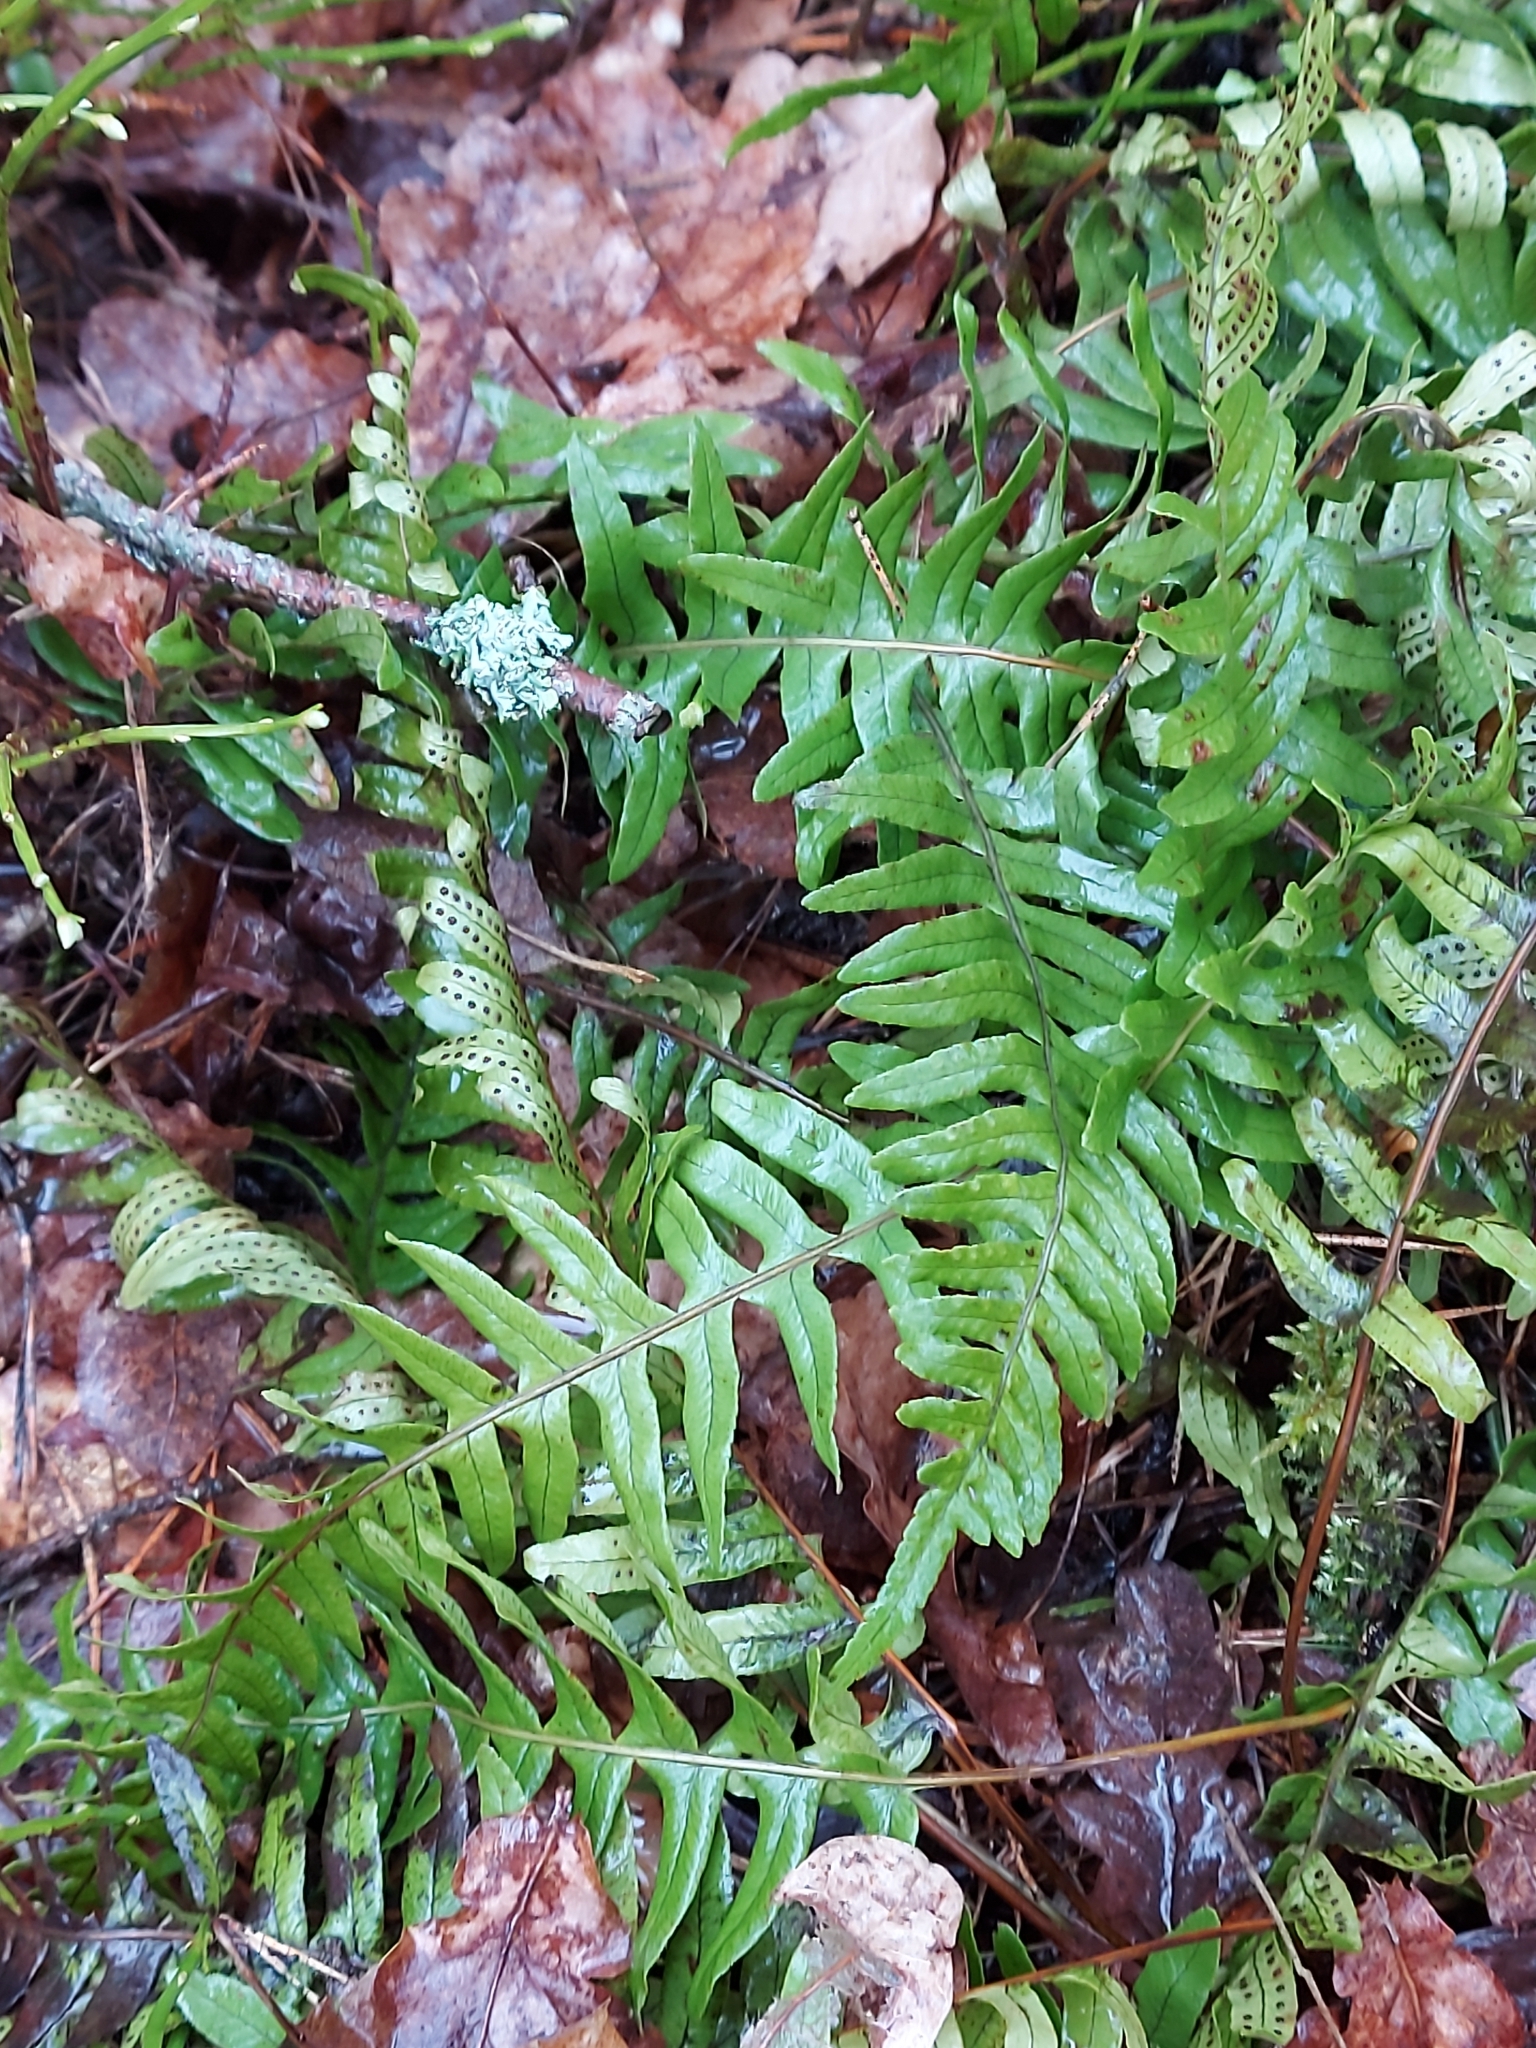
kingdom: Plantae
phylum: Tracheophyta
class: Polypodiopsida
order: Polypodiales
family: Polypodiaceae
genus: Polypodium
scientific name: Polypodium vulgare
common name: Common polypody
